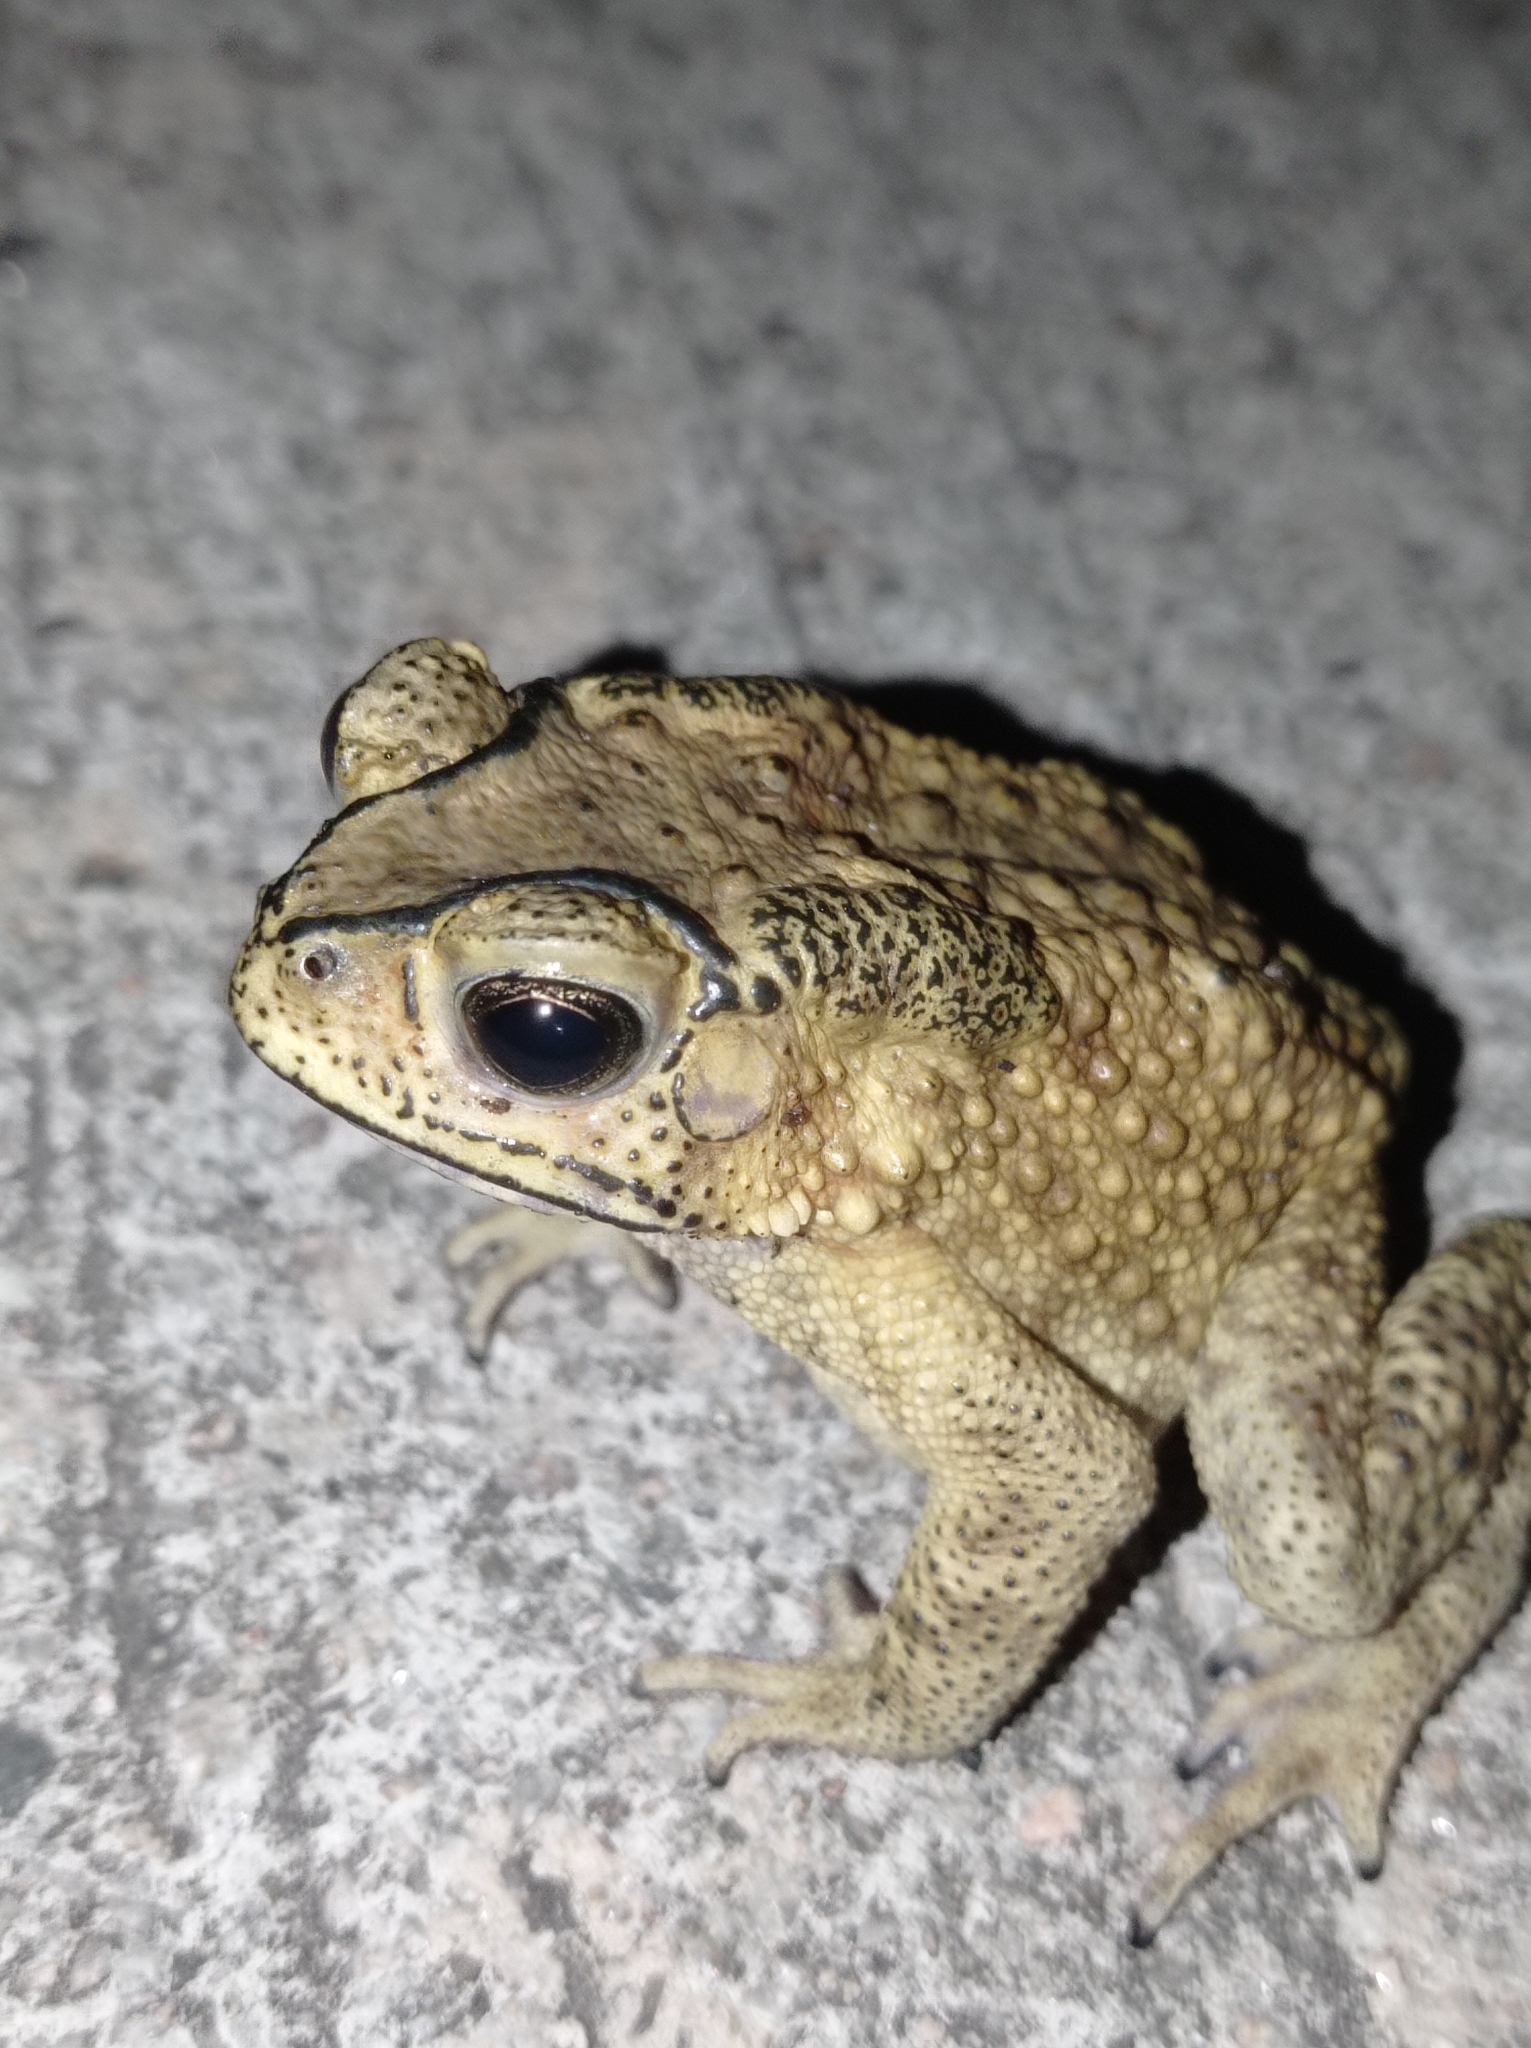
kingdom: Animalia
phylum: Chordata
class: Amphibia
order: Anura
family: Bufonidae
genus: Duttaphrynus
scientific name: Duttaphrynus melanostictus
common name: Common sunda toad
